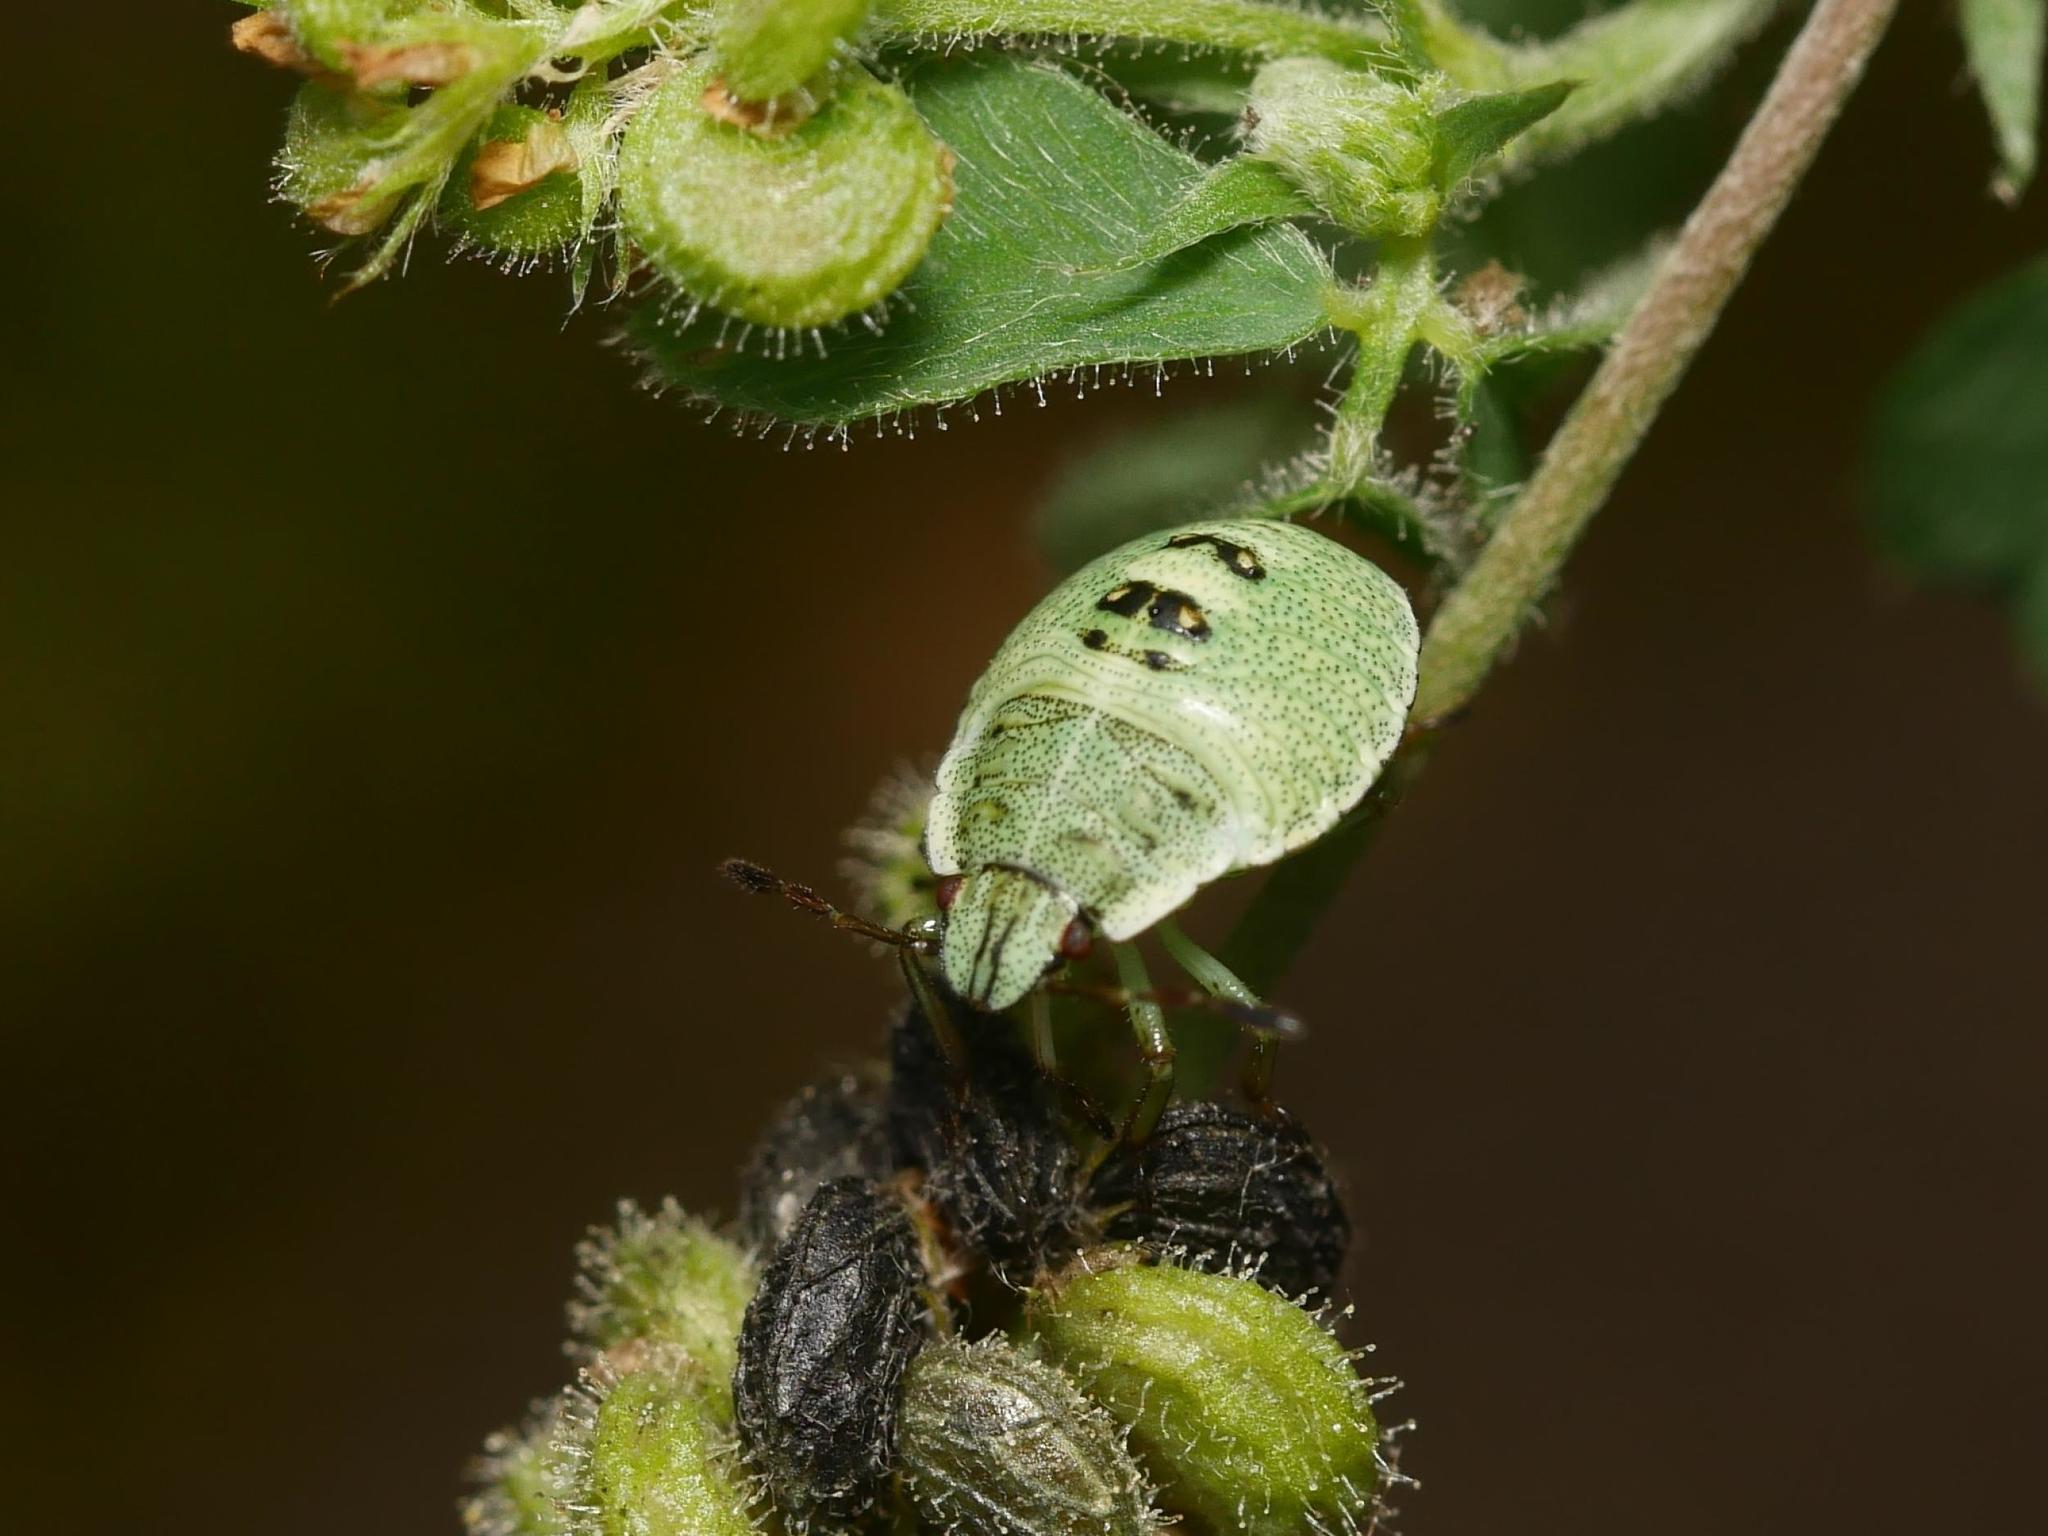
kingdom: Animalia
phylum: Arthropoda
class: Insecta
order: Hemiptera
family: Pentatomidae
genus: Palomena
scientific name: Palomena prasina
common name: Green shieldbug
